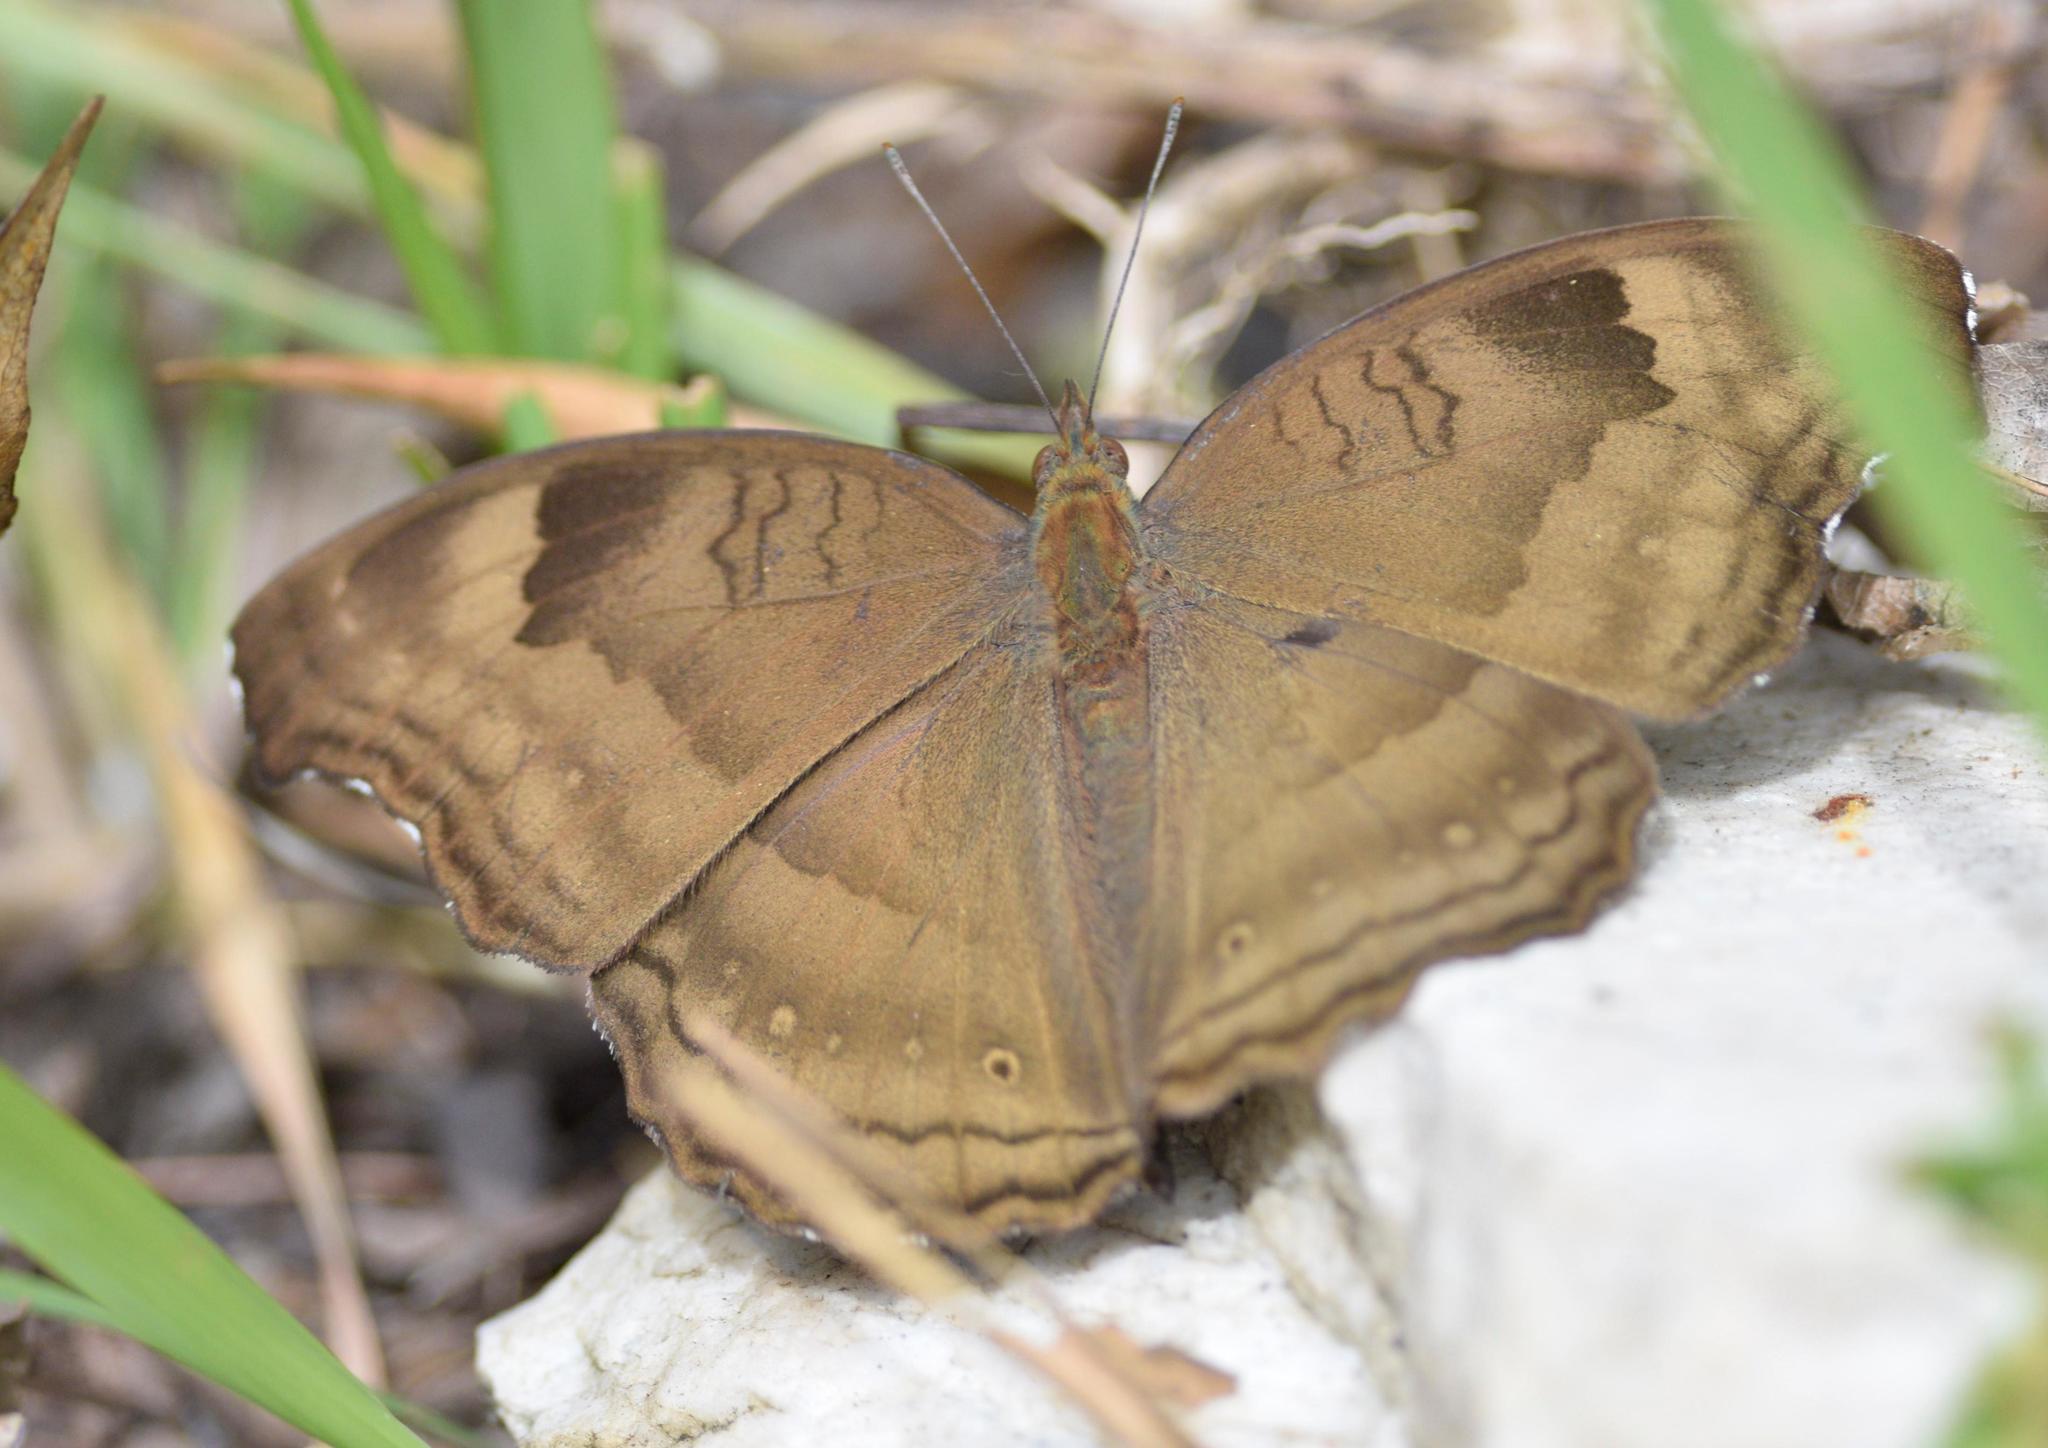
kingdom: Animalia
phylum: Arthropoda
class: Insecta
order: Lepidoptera
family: Nymphalidae
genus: Junonia
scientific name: Junonia iphita
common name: Chocolate pansy
